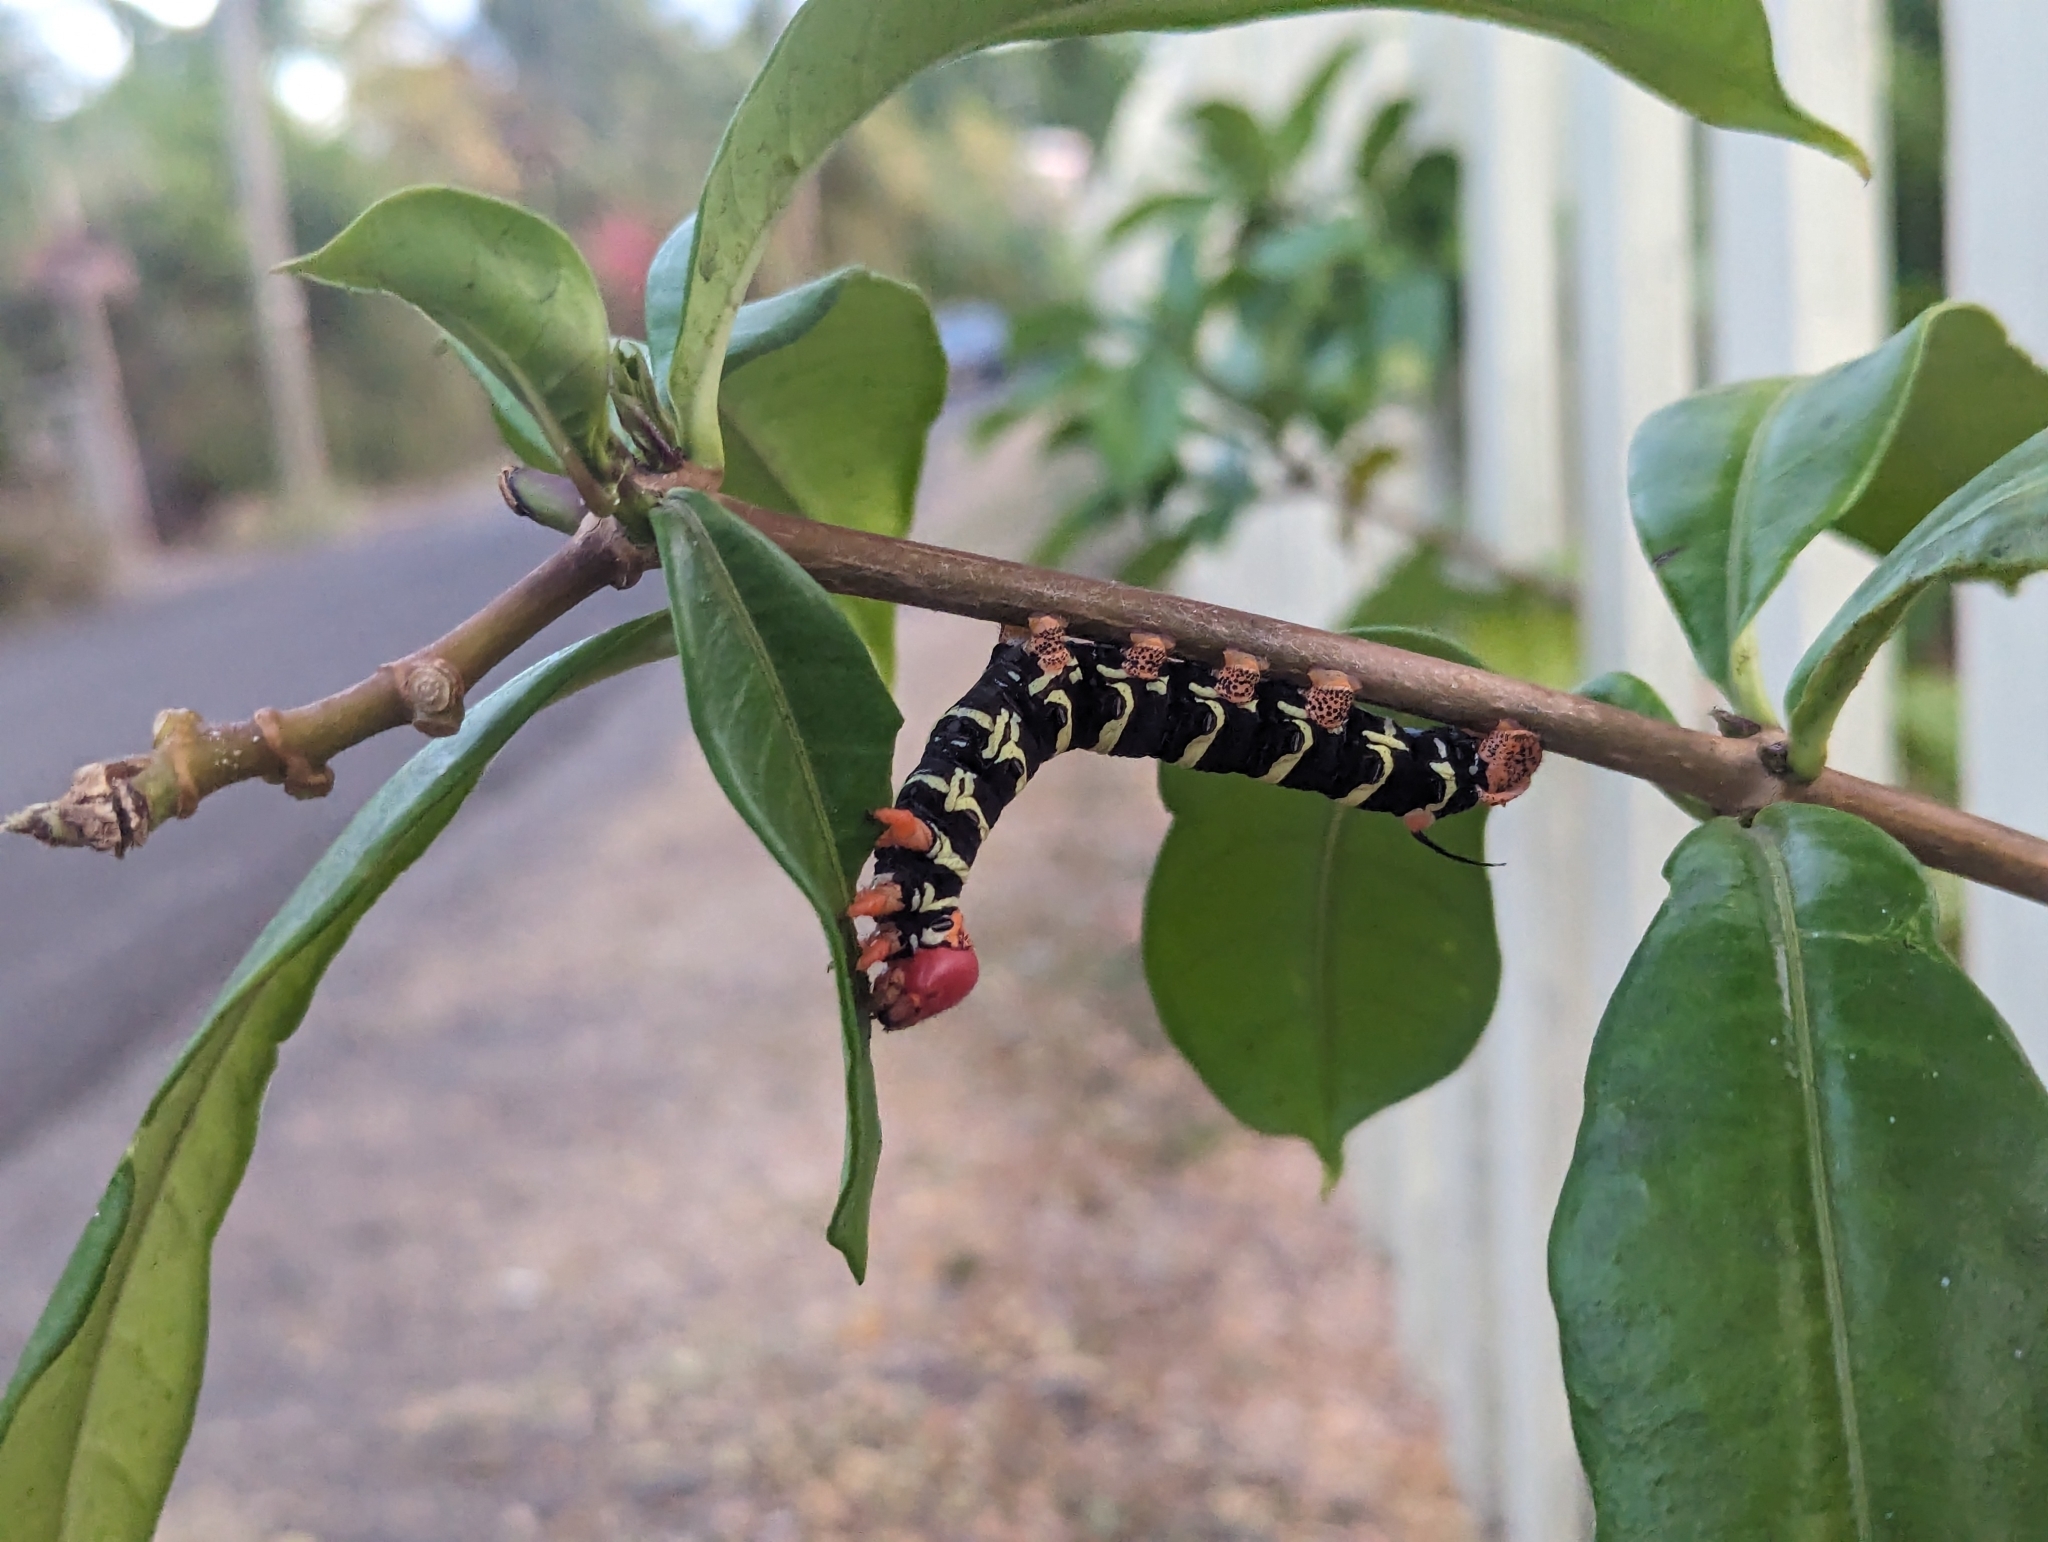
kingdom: Animalia
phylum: Arthropoda
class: Insecta
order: Lepidoptera
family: Sphingidae
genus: Pseudosphinx
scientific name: Pseudosphinx tetrio
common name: Tetrio sphinx
